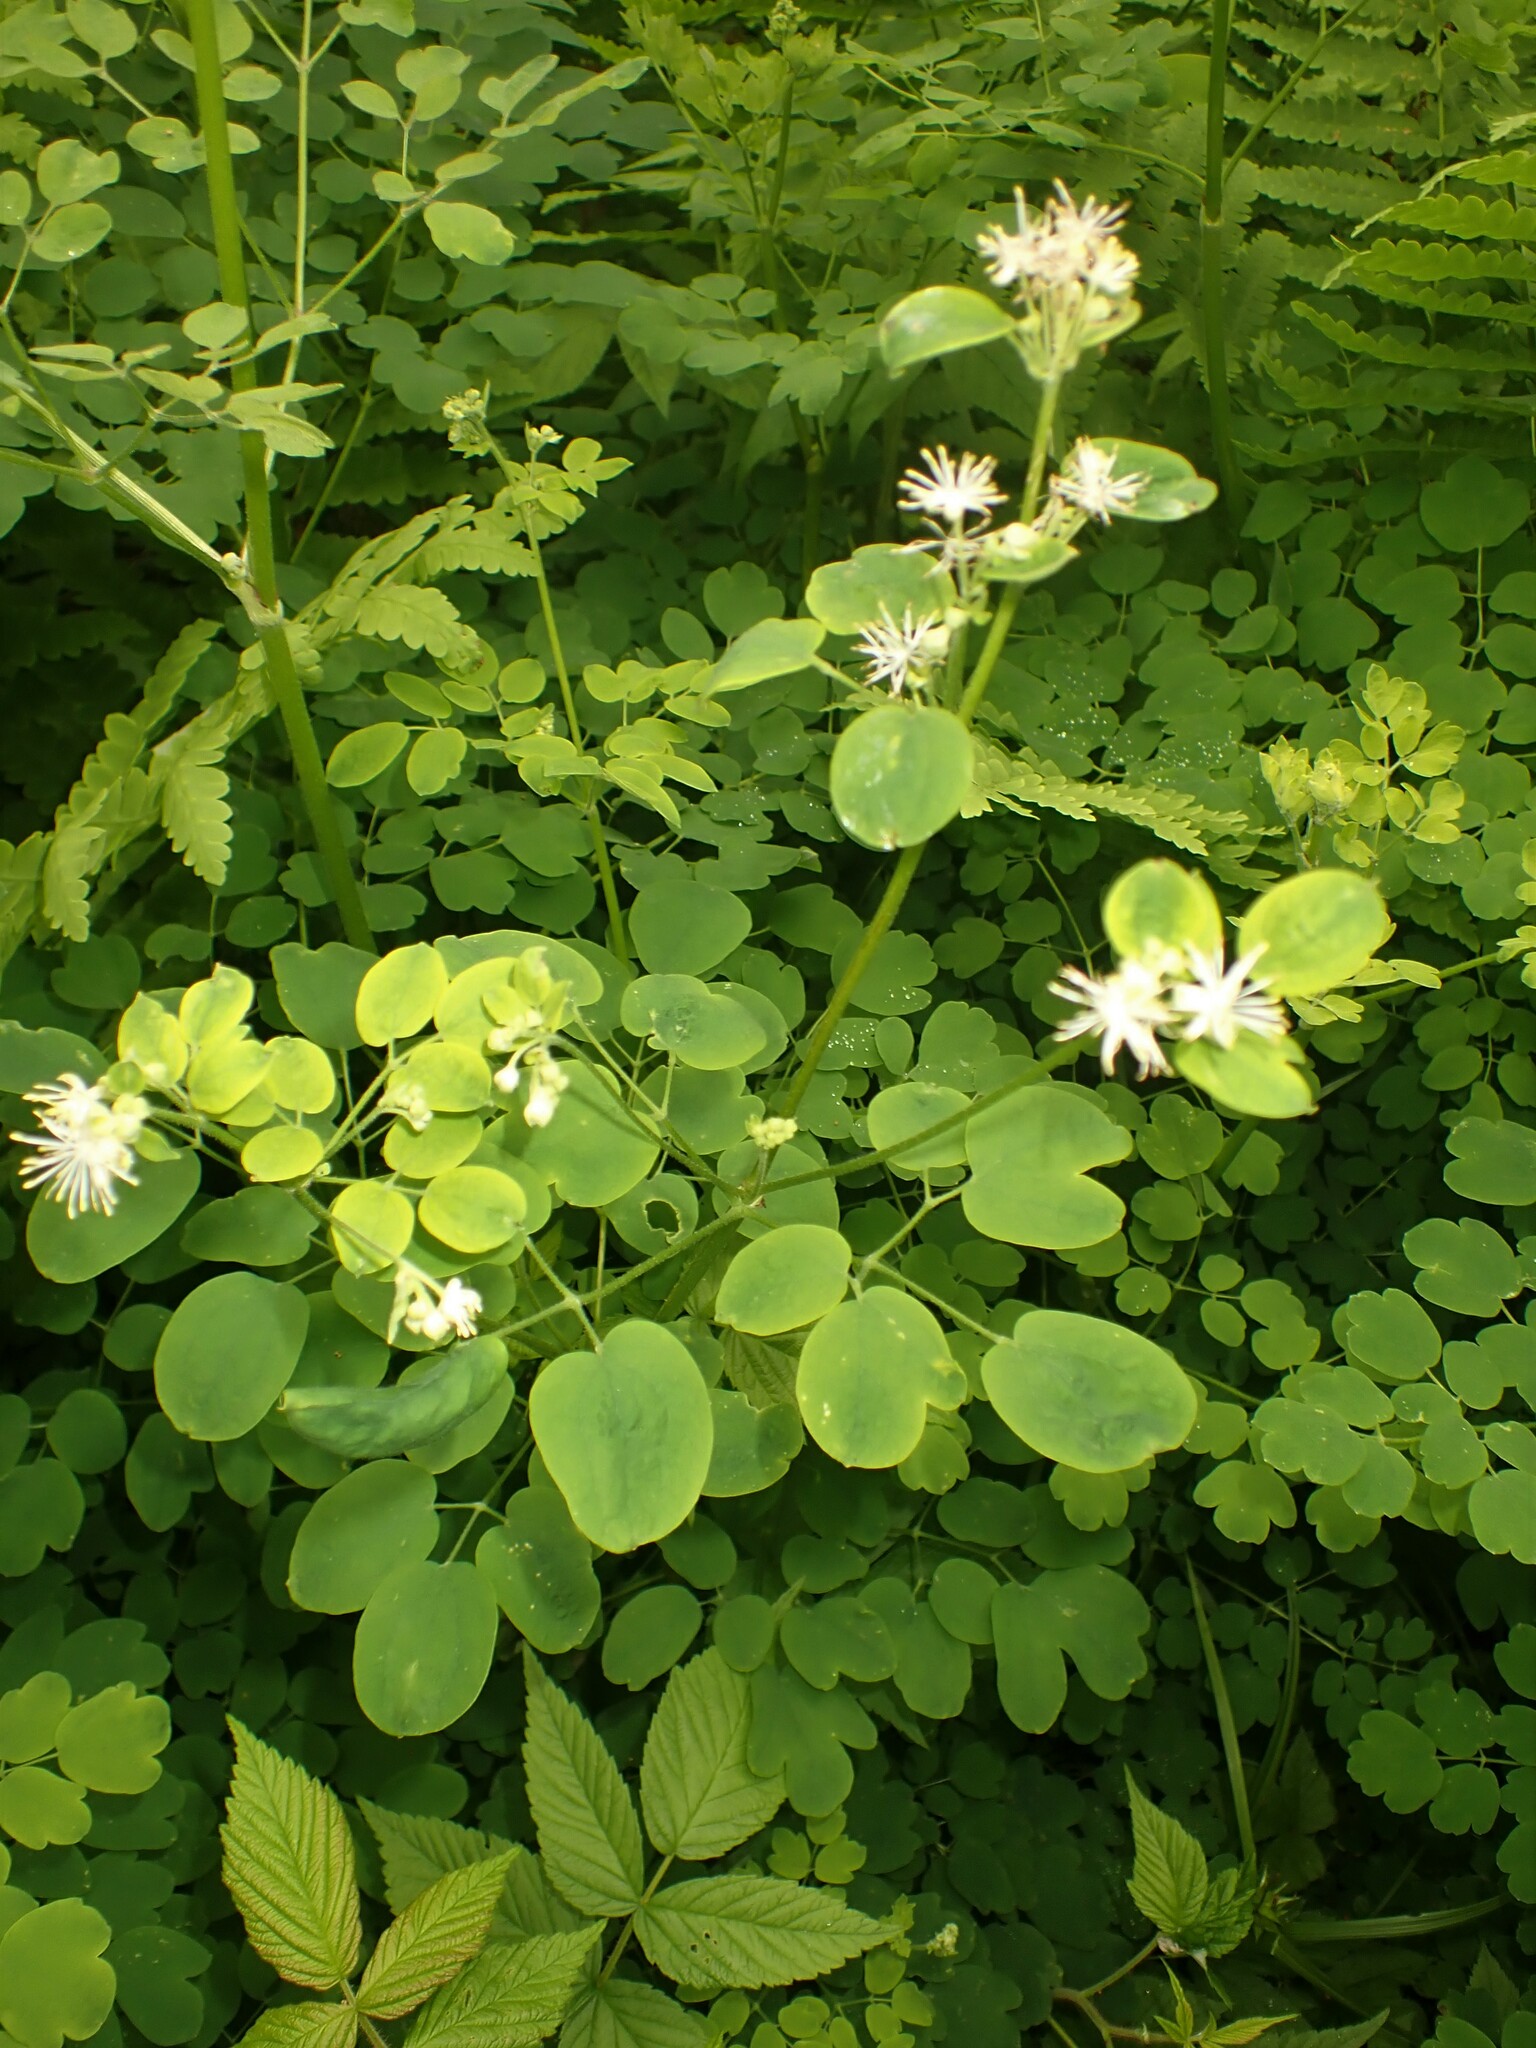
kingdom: Plantae
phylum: Tracheophyta
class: Magnoliopsida
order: Ranunculales
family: Ranunculaceae
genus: Thalictrum
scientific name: Thalictrum pubescens
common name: King-of-the-meadow
